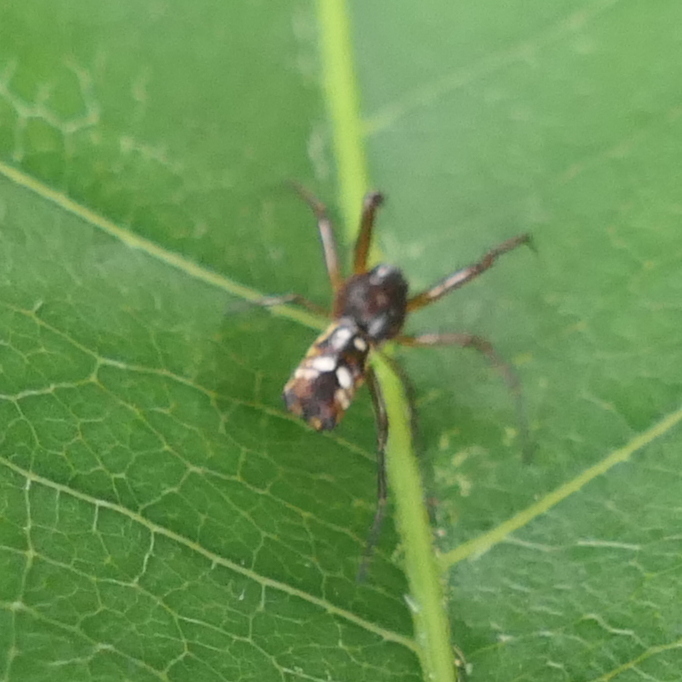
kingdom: Animalia
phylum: Arthropoda
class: Arachnida
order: Araneae
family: Araneidae
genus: Micrathena
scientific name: Micrathena fissispina
